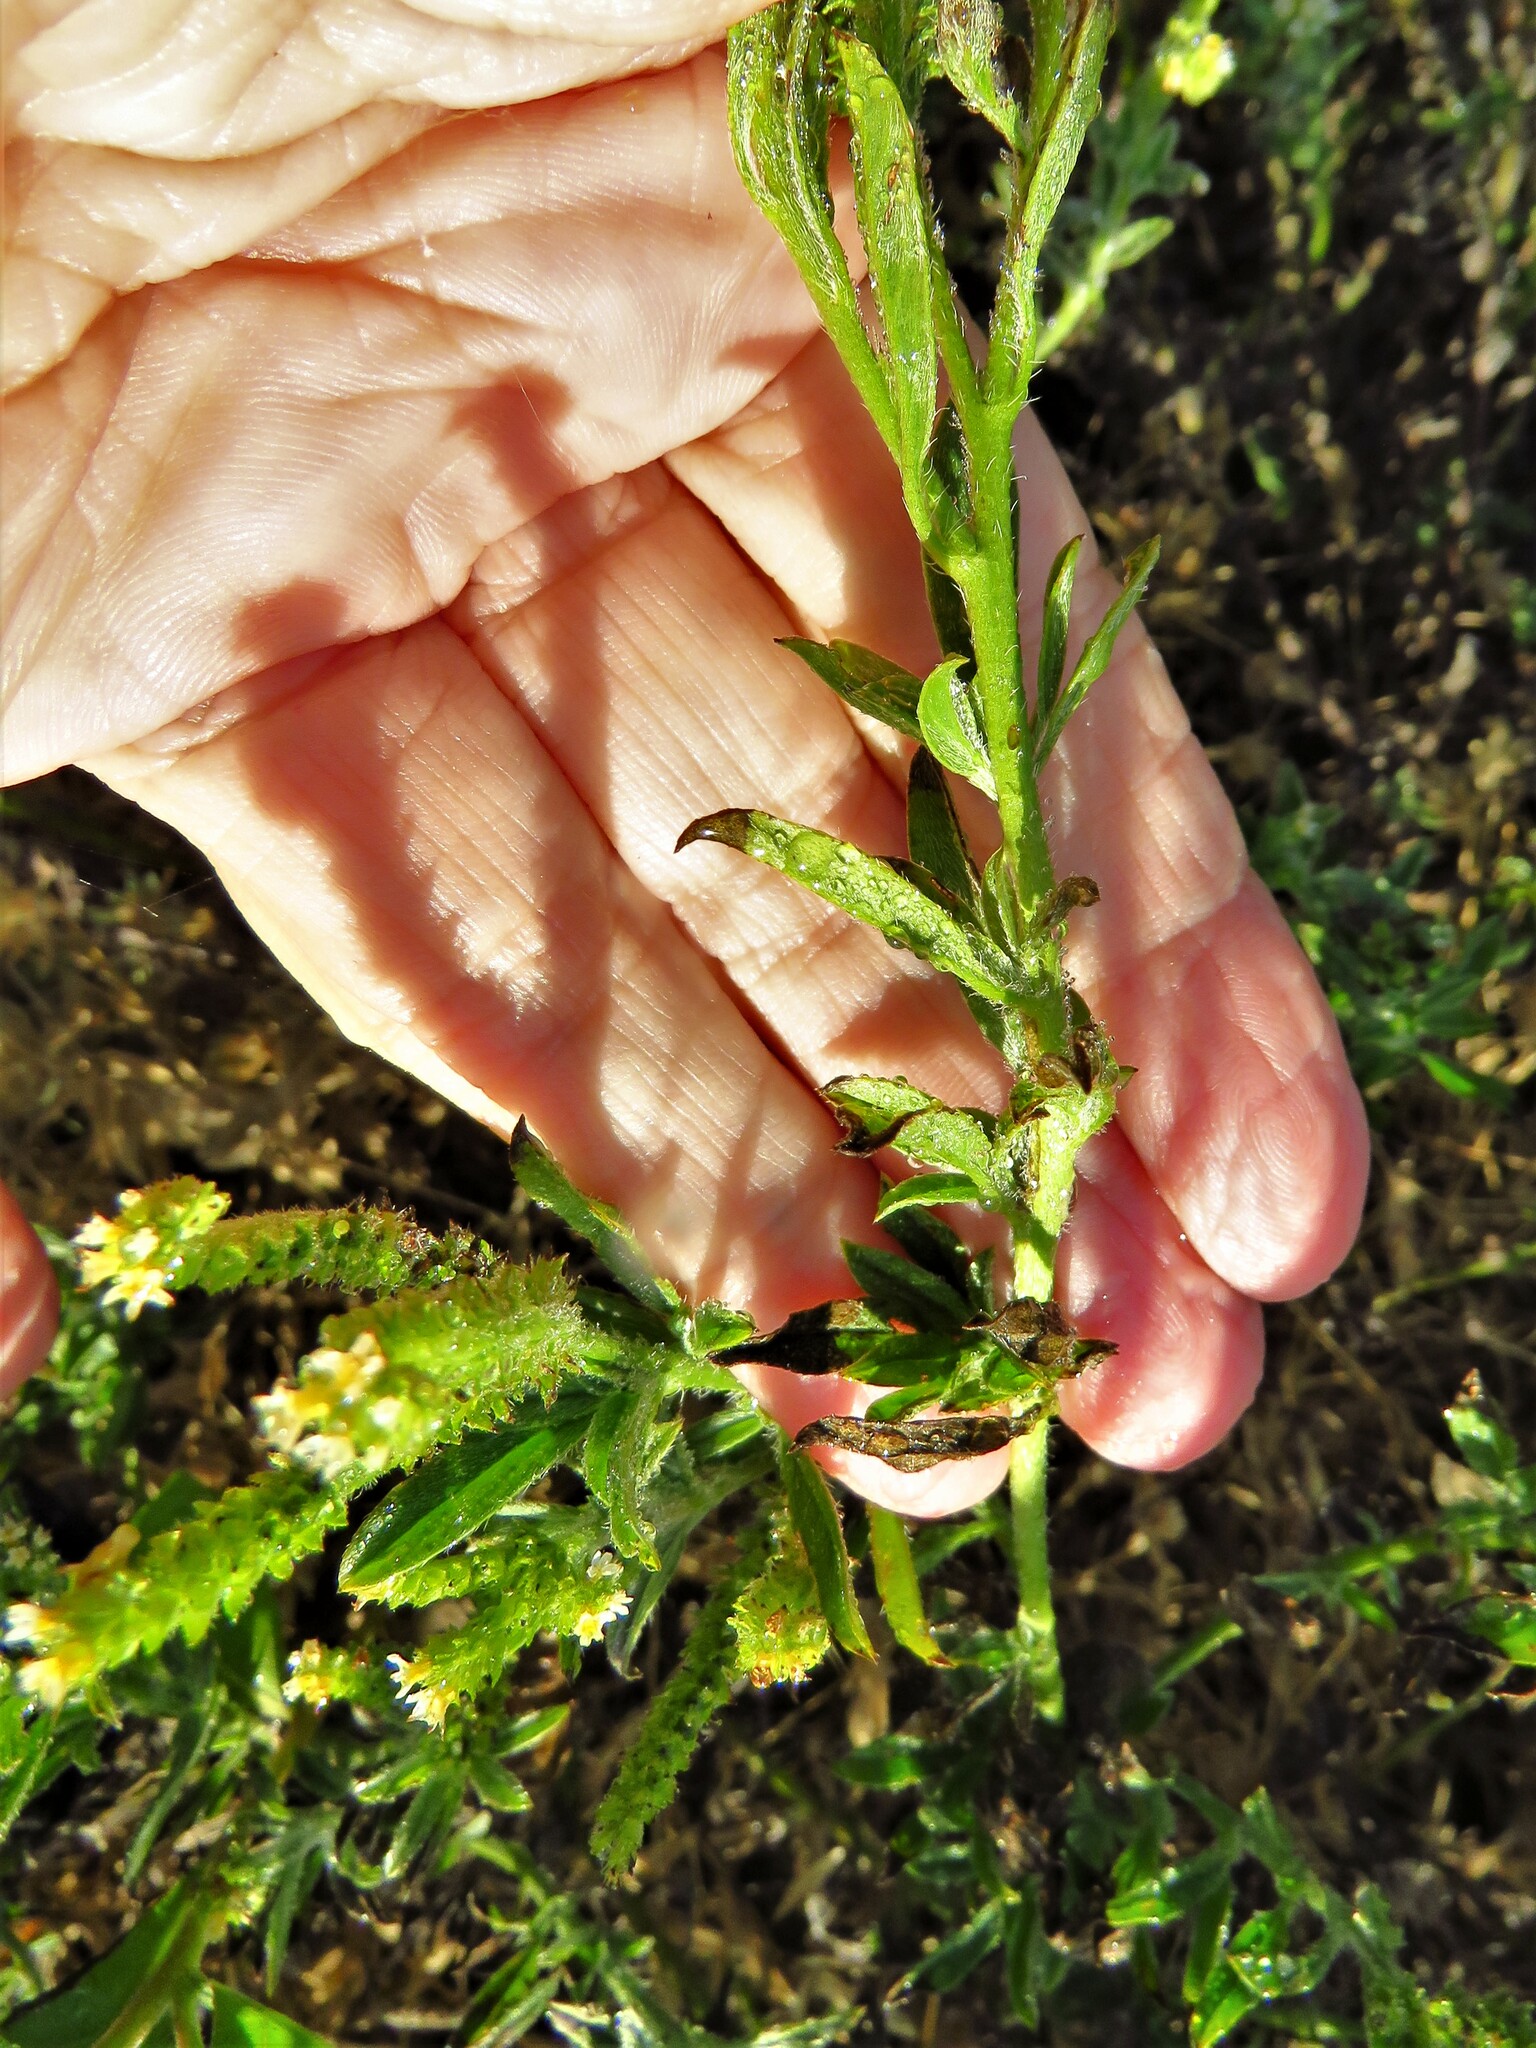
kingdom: Plantae
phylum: Tracheophyta
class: Magnoliopsida
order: Boraginales
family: Heliotropiaceae
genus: Euploca
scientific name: Euploca procumbens
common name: Fourspike heliotrope
